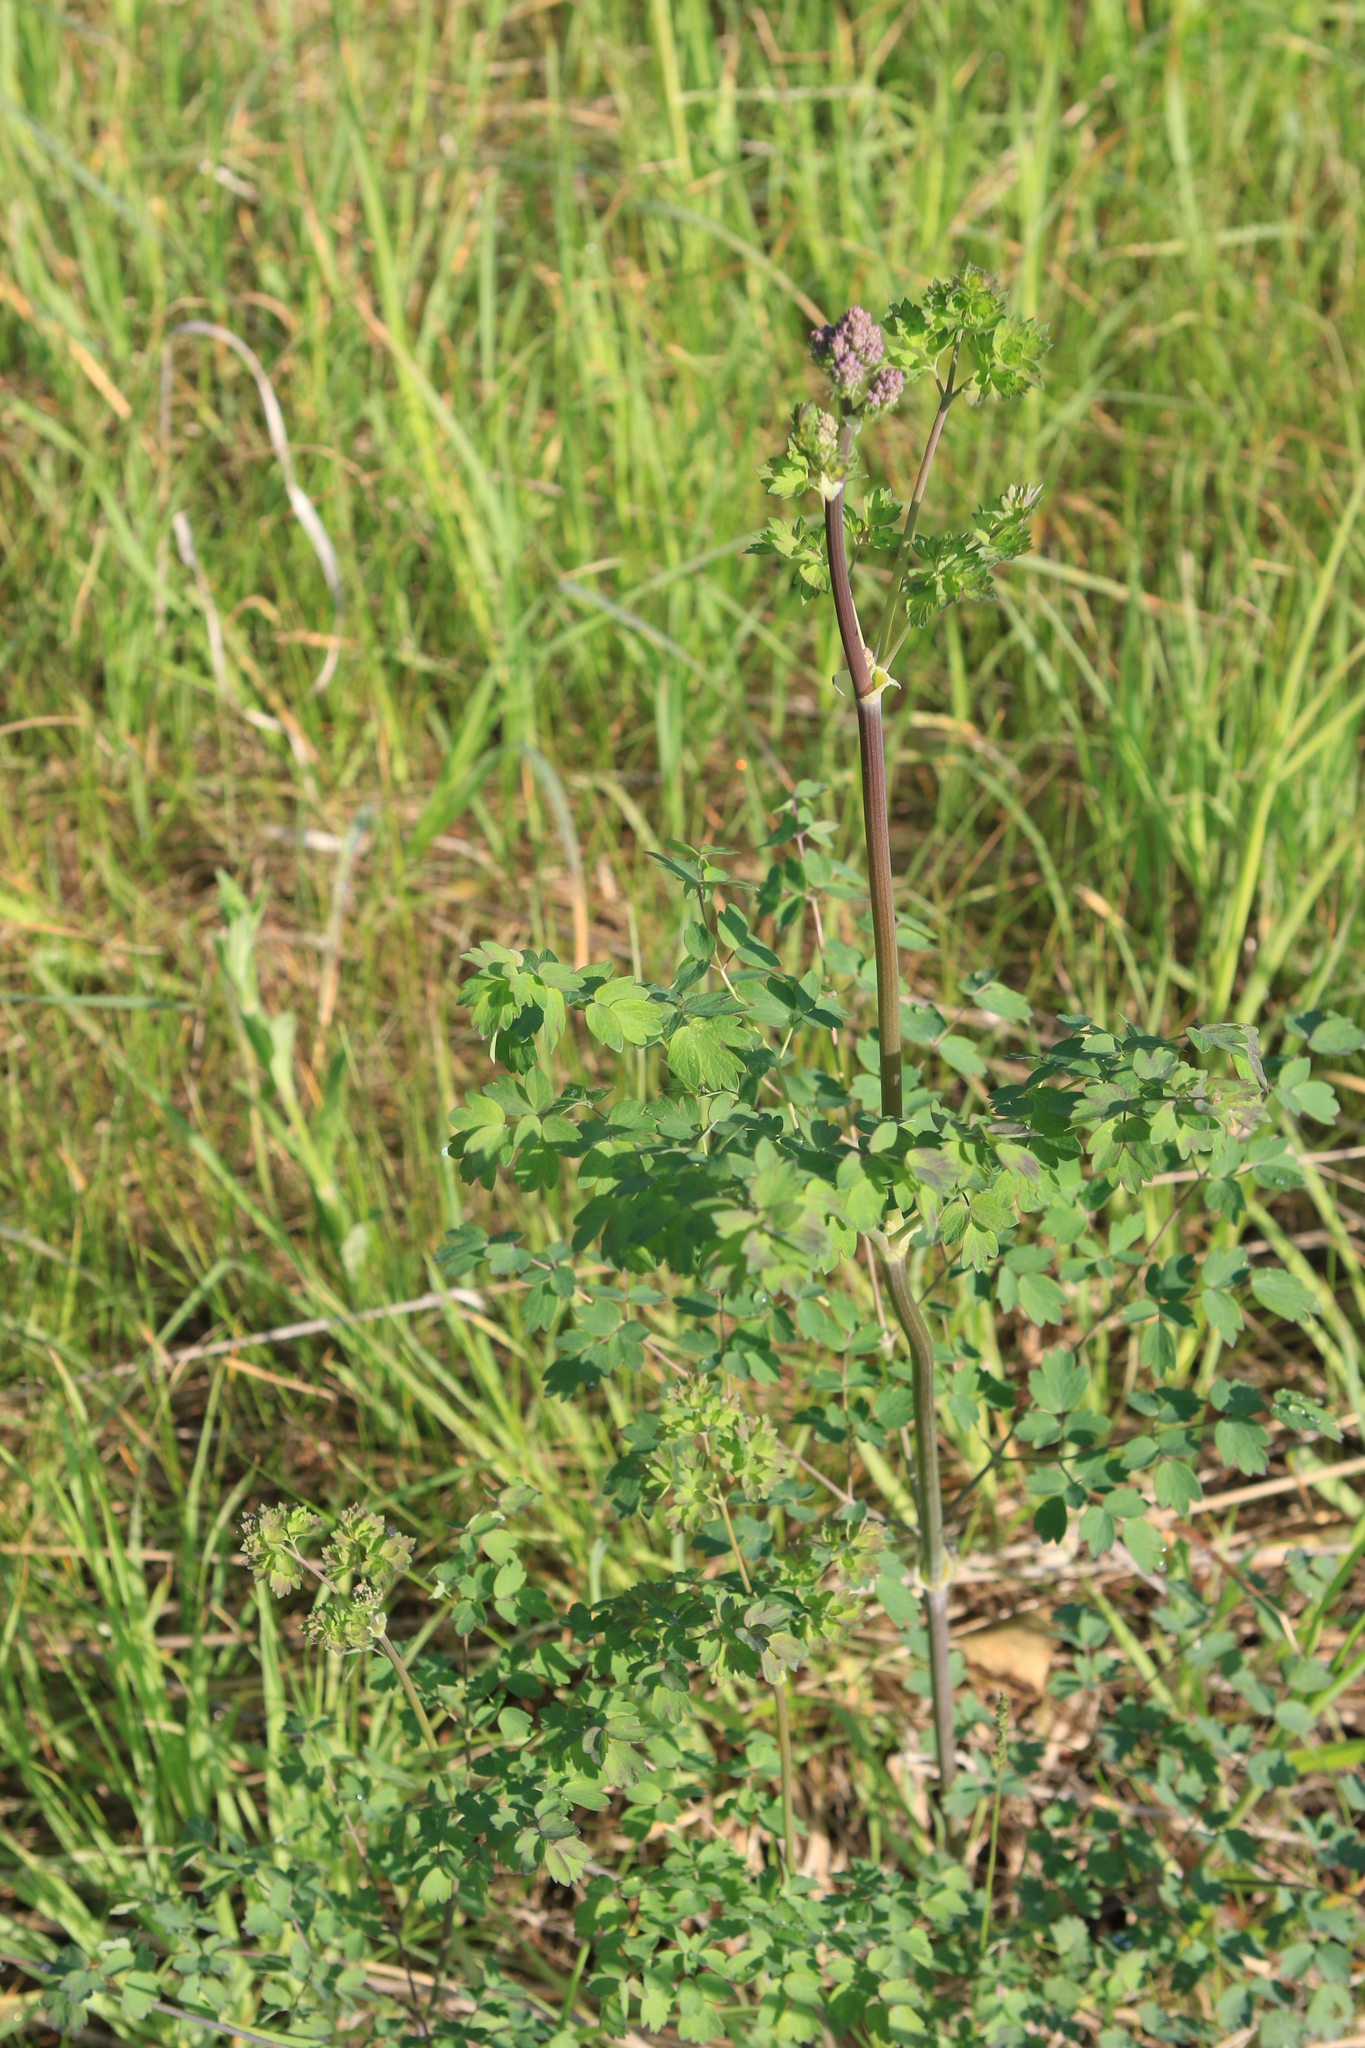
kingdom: Plantae
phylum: Tracheophyta
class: Magnoliopsida
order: Ranunculales
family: Ranunculaceae
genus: Thalictrum
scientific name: Thalictrum minus
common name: Lesser meadow-rue
